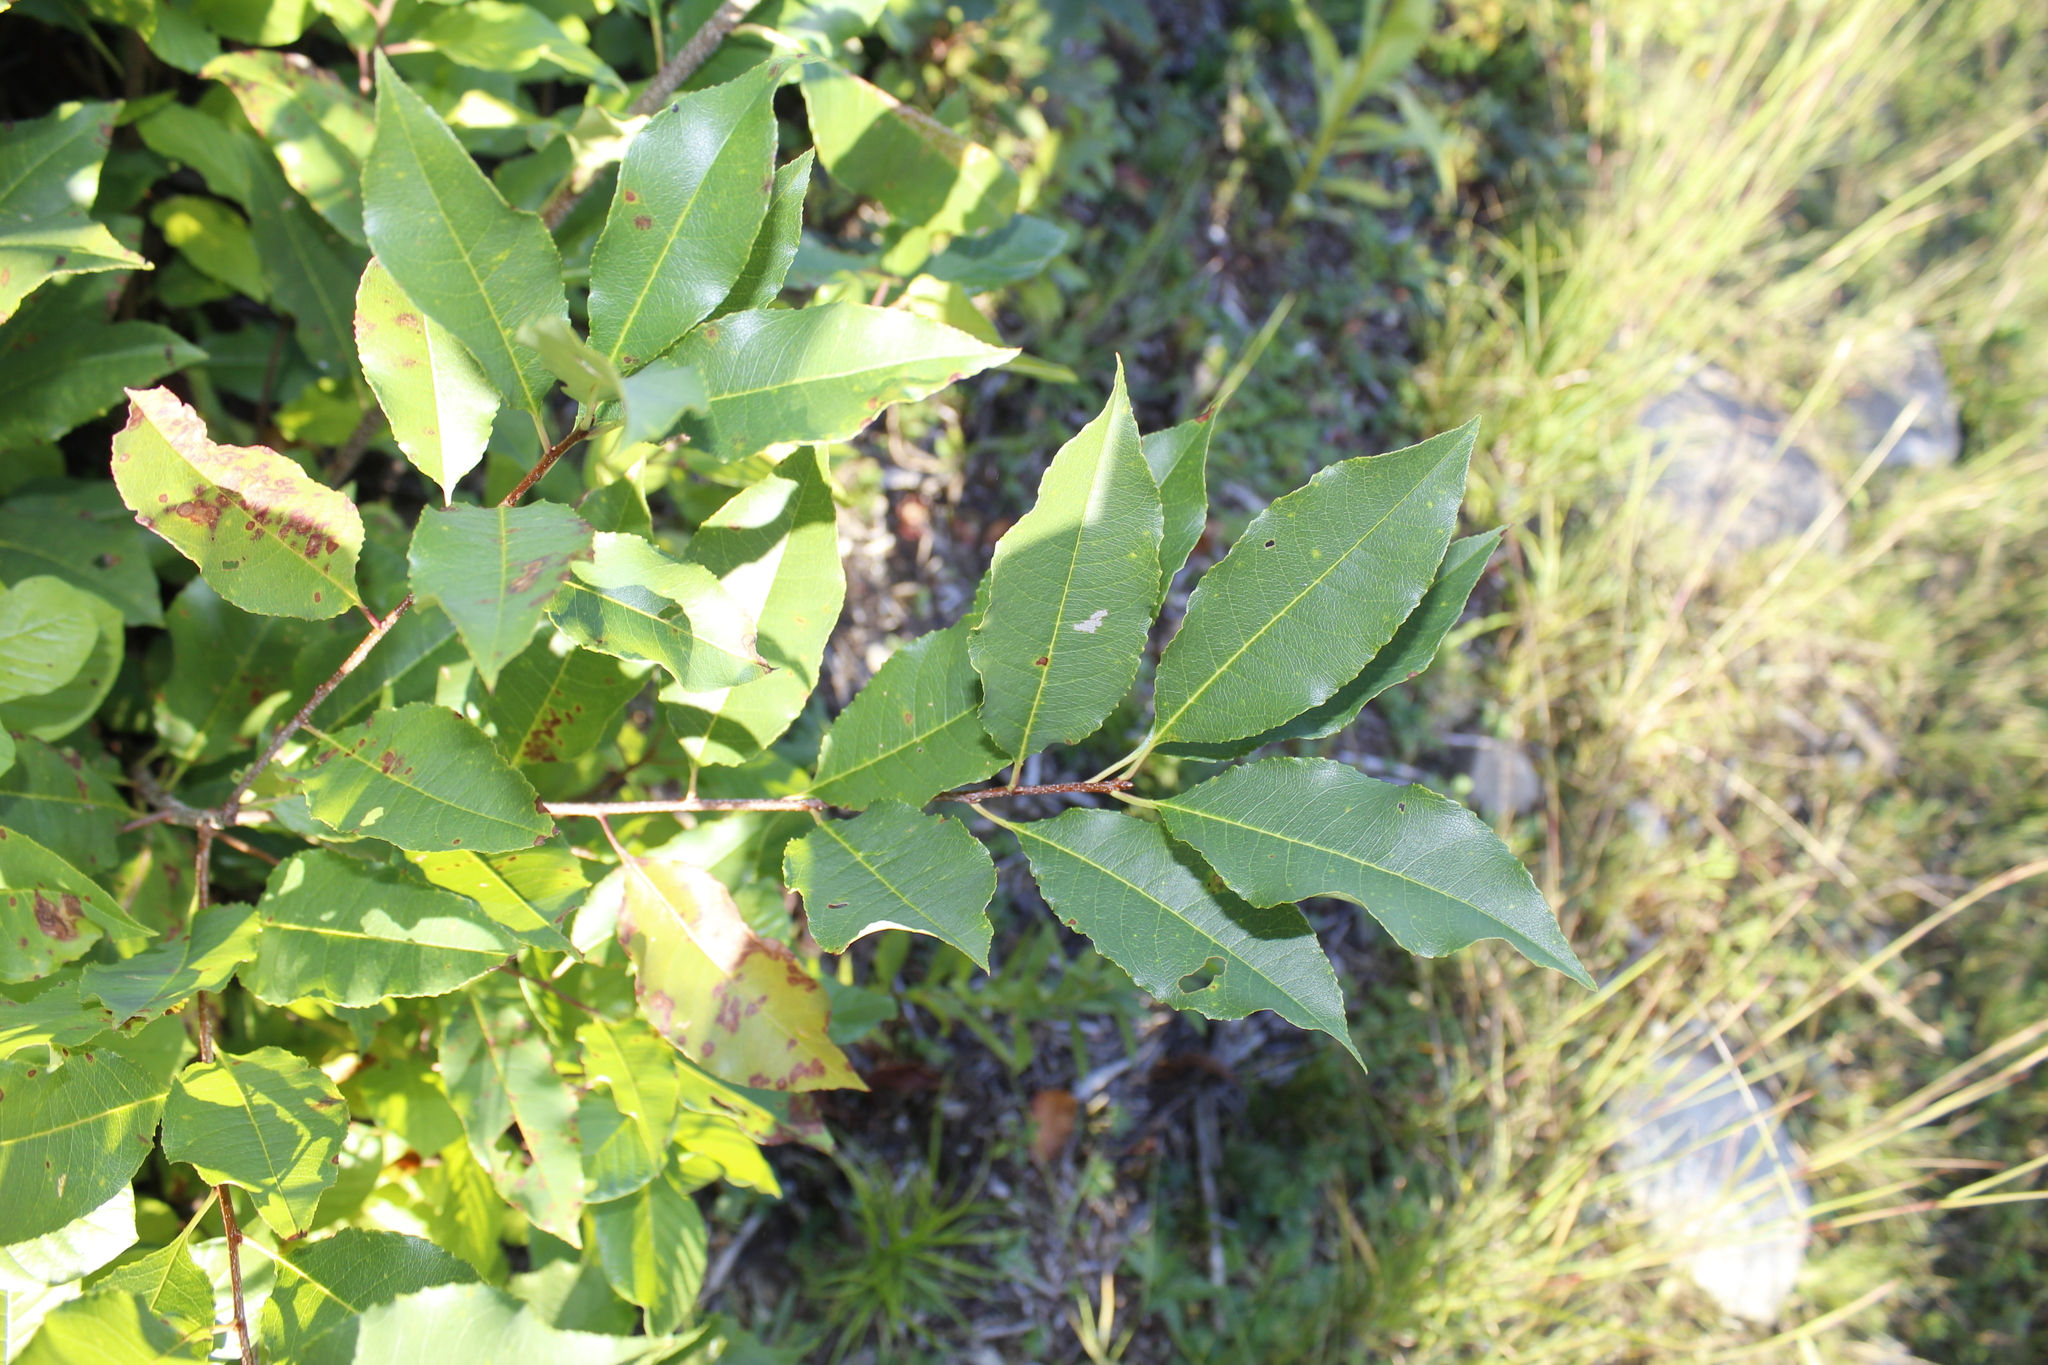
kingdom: Plantae
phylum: Tracheophyta
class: Magnoliopsida
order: Rosales
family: Rosaceae
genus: Prunus
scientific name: Prunus serotina
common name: Black cherry
